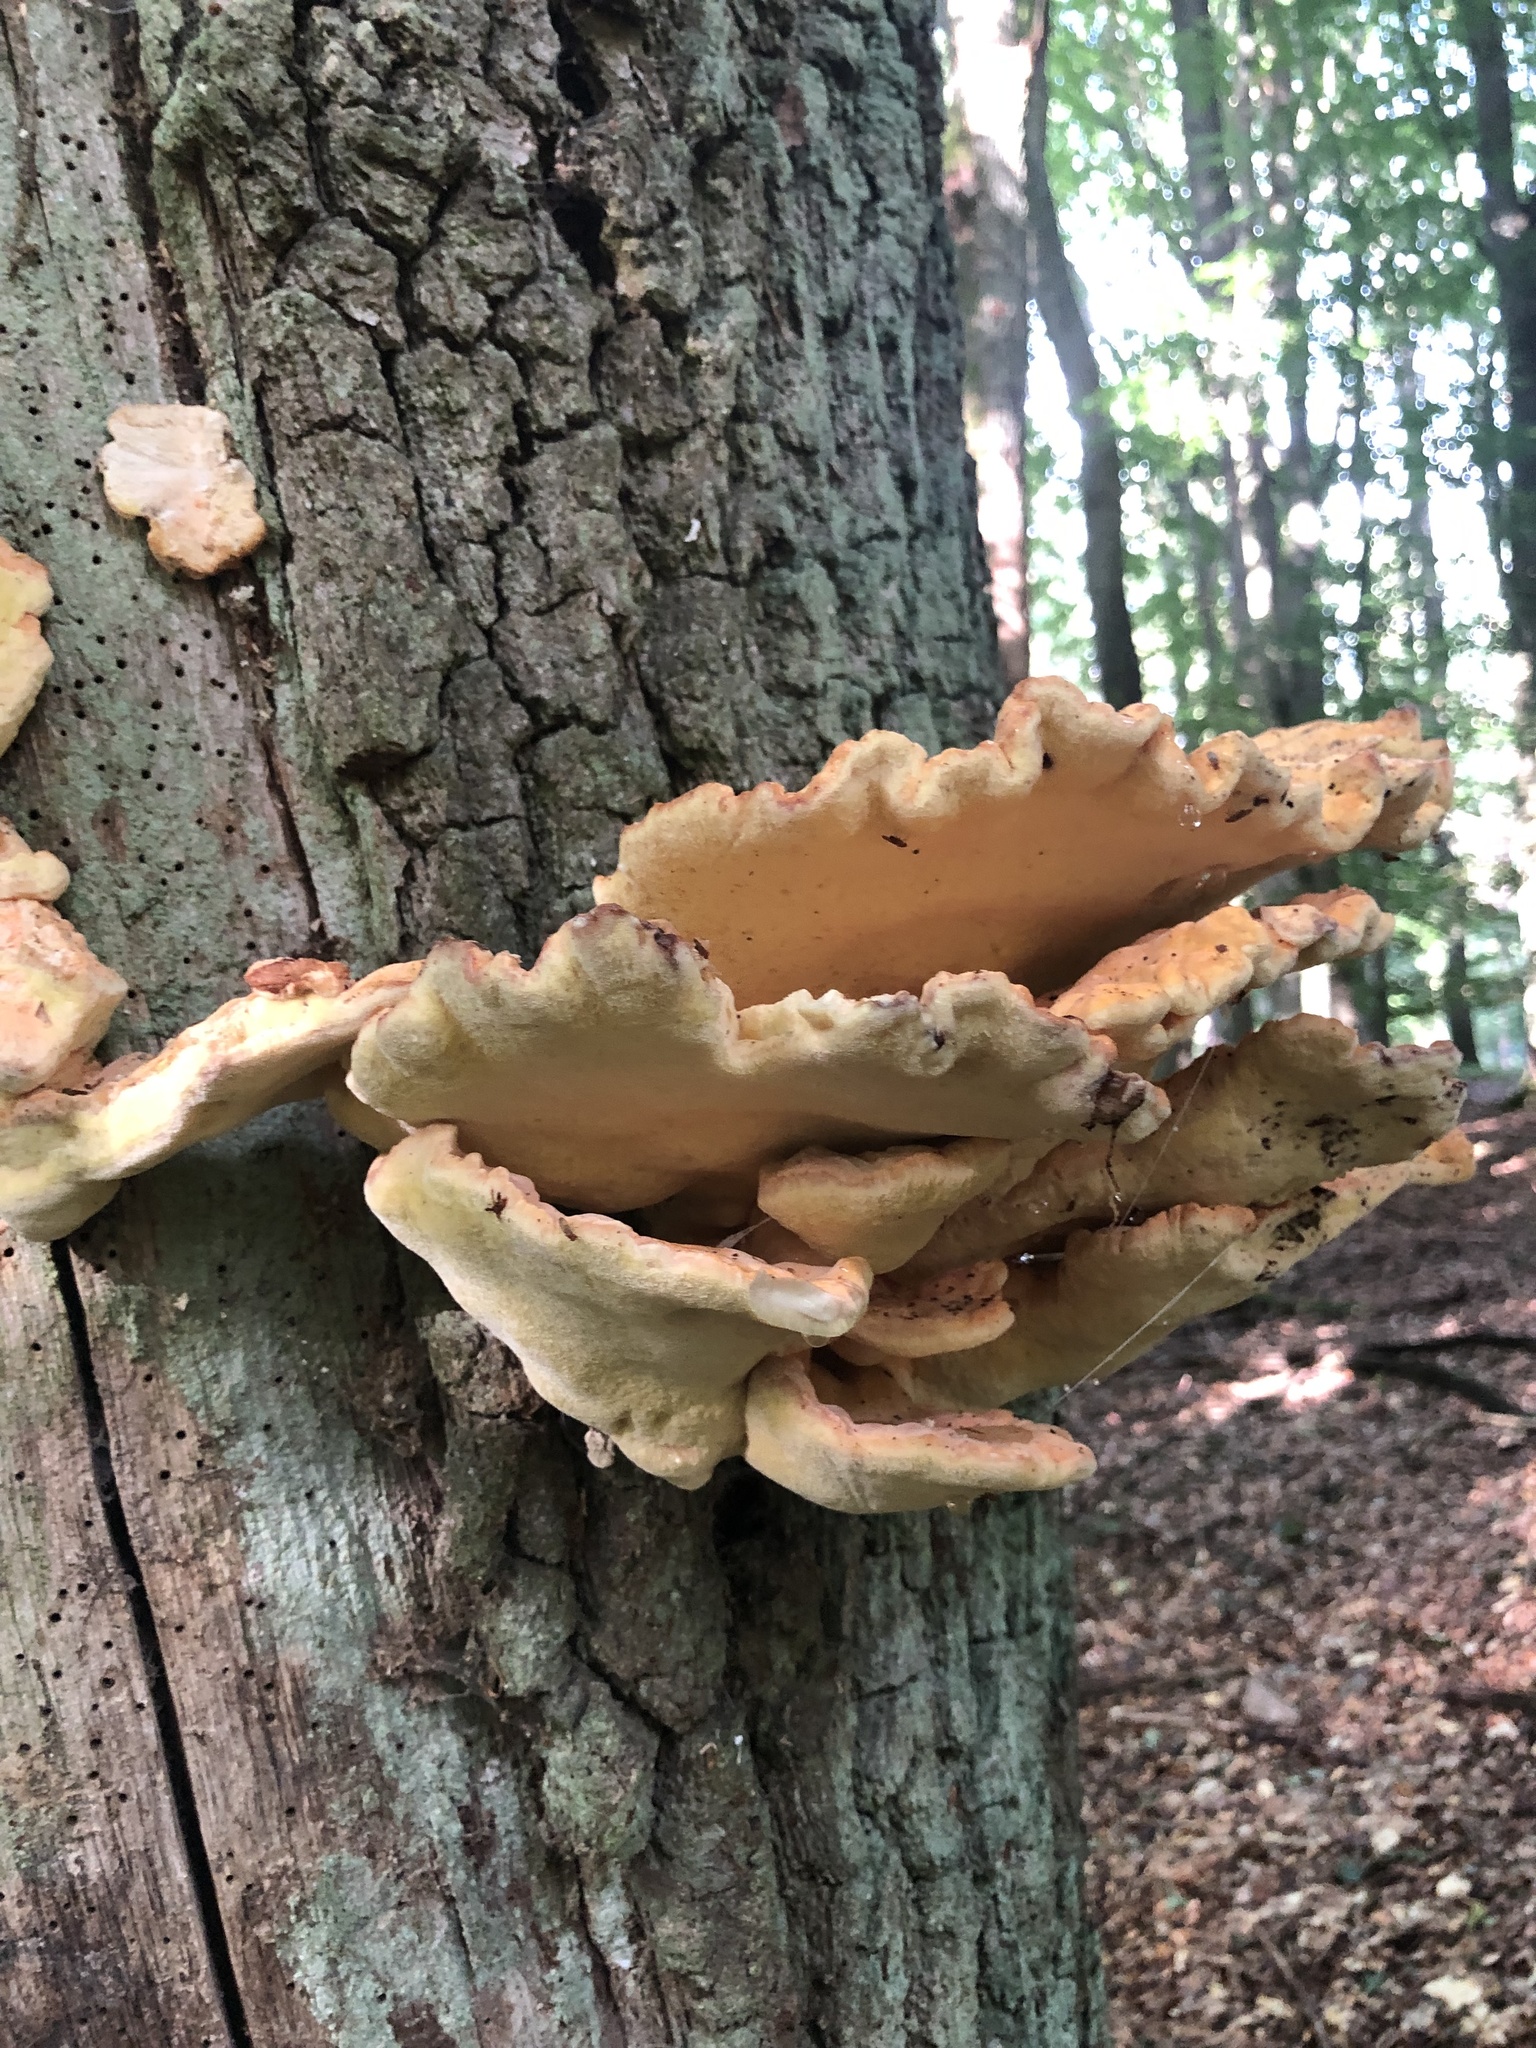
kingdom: Fungi
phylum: Basidiomycota
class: Agaricomycetes
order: Polyporales
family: Laetiporaceae
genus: Laetiporus
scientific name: Laetiporus sulphureus
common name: Chicken of the woods
